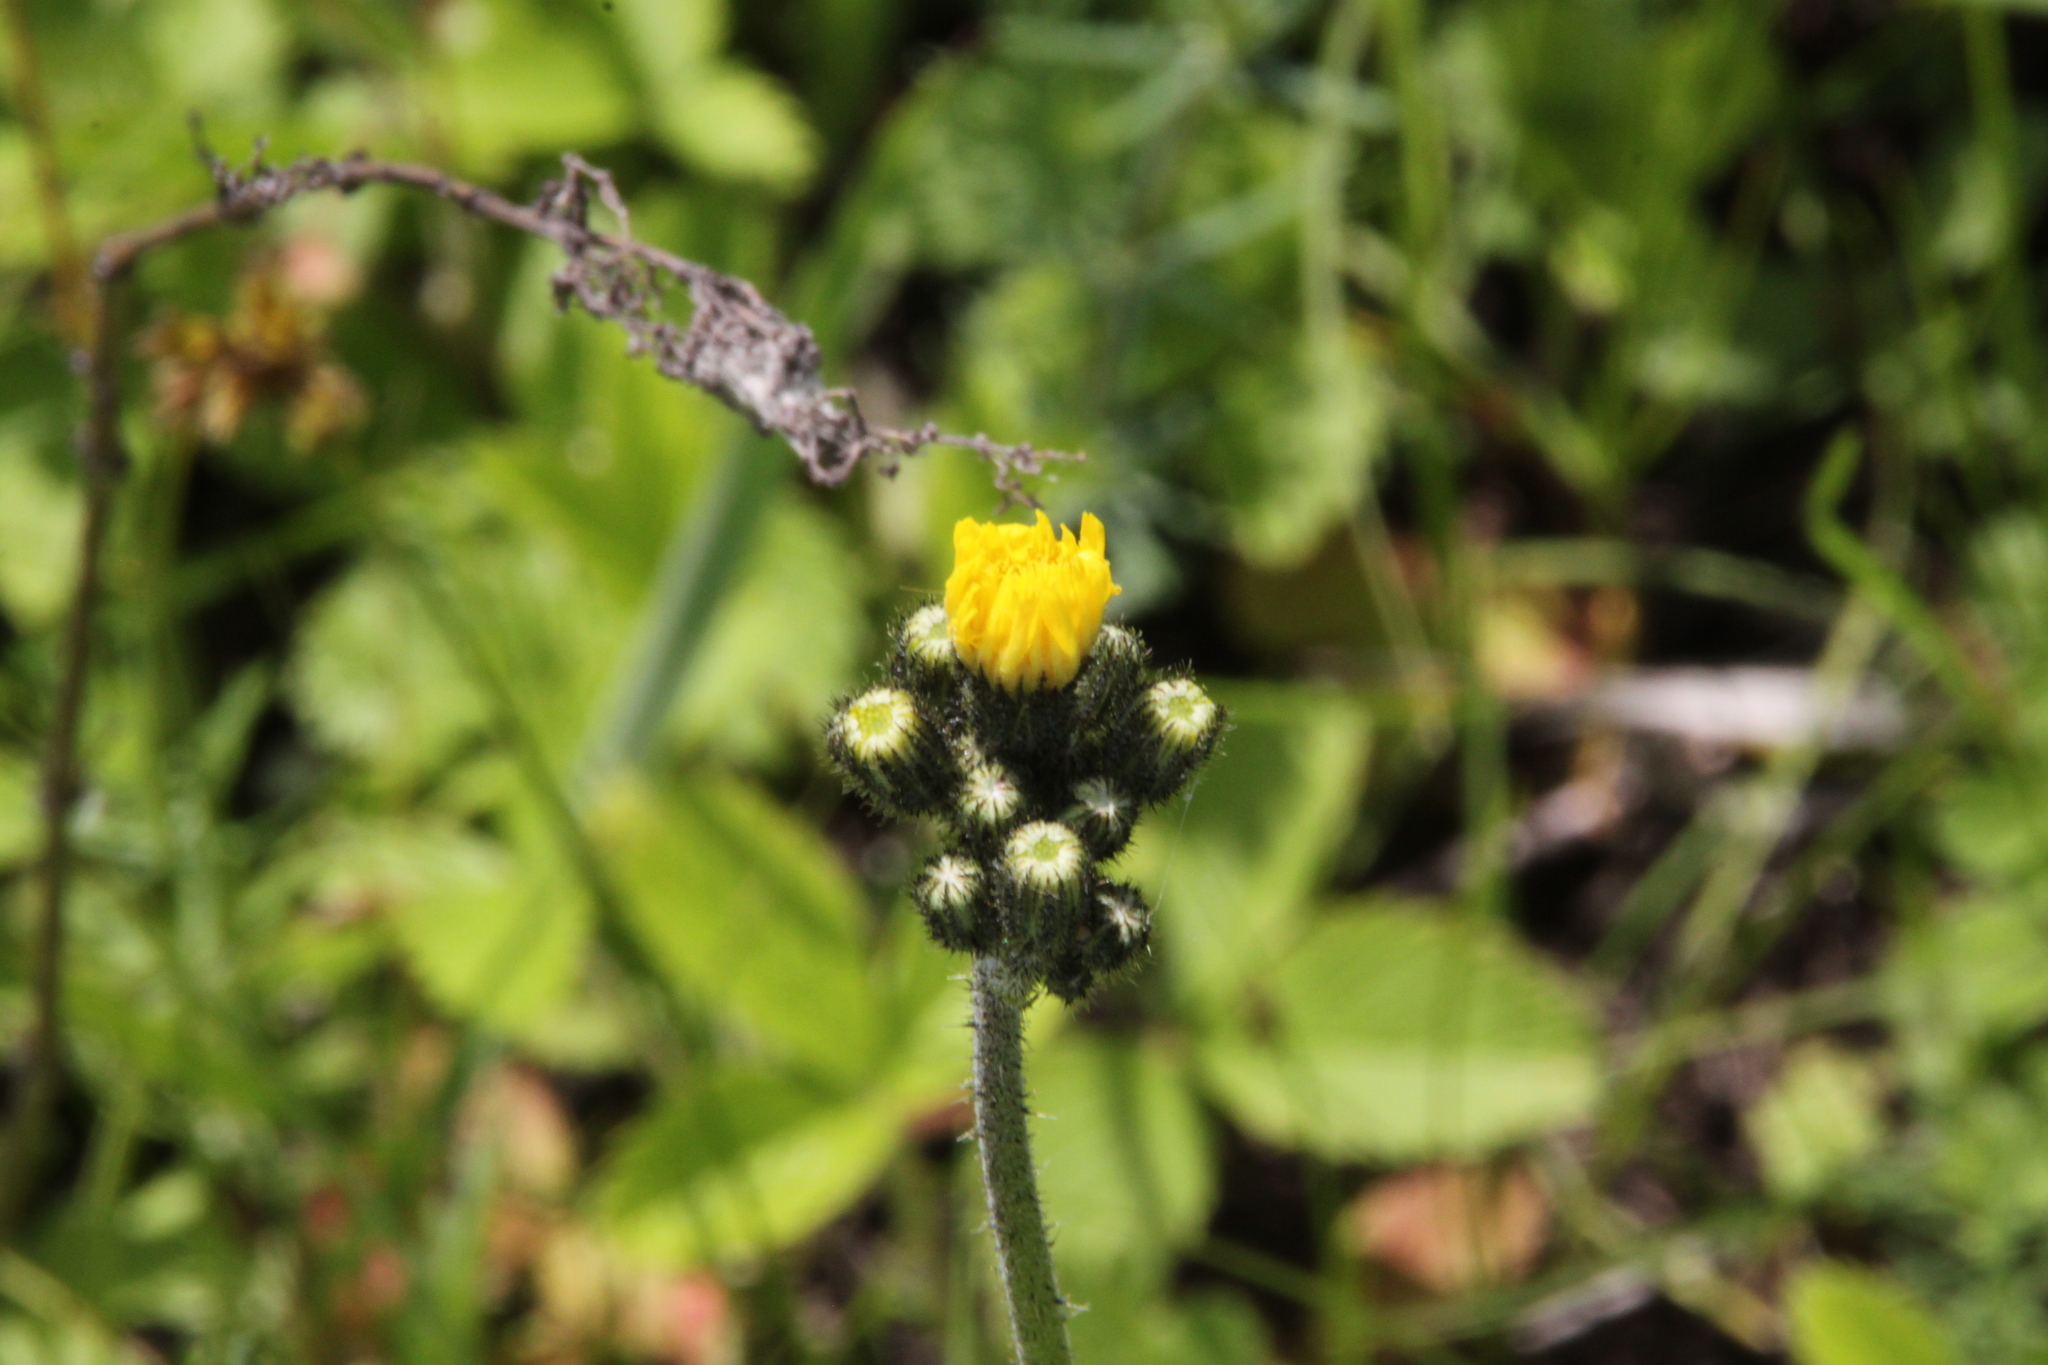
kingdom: Plantae
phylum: Tracheophyta
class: Magnoliopsida
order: Asterales
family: Asteraceae
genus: Pilosella
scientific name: Pilosella
